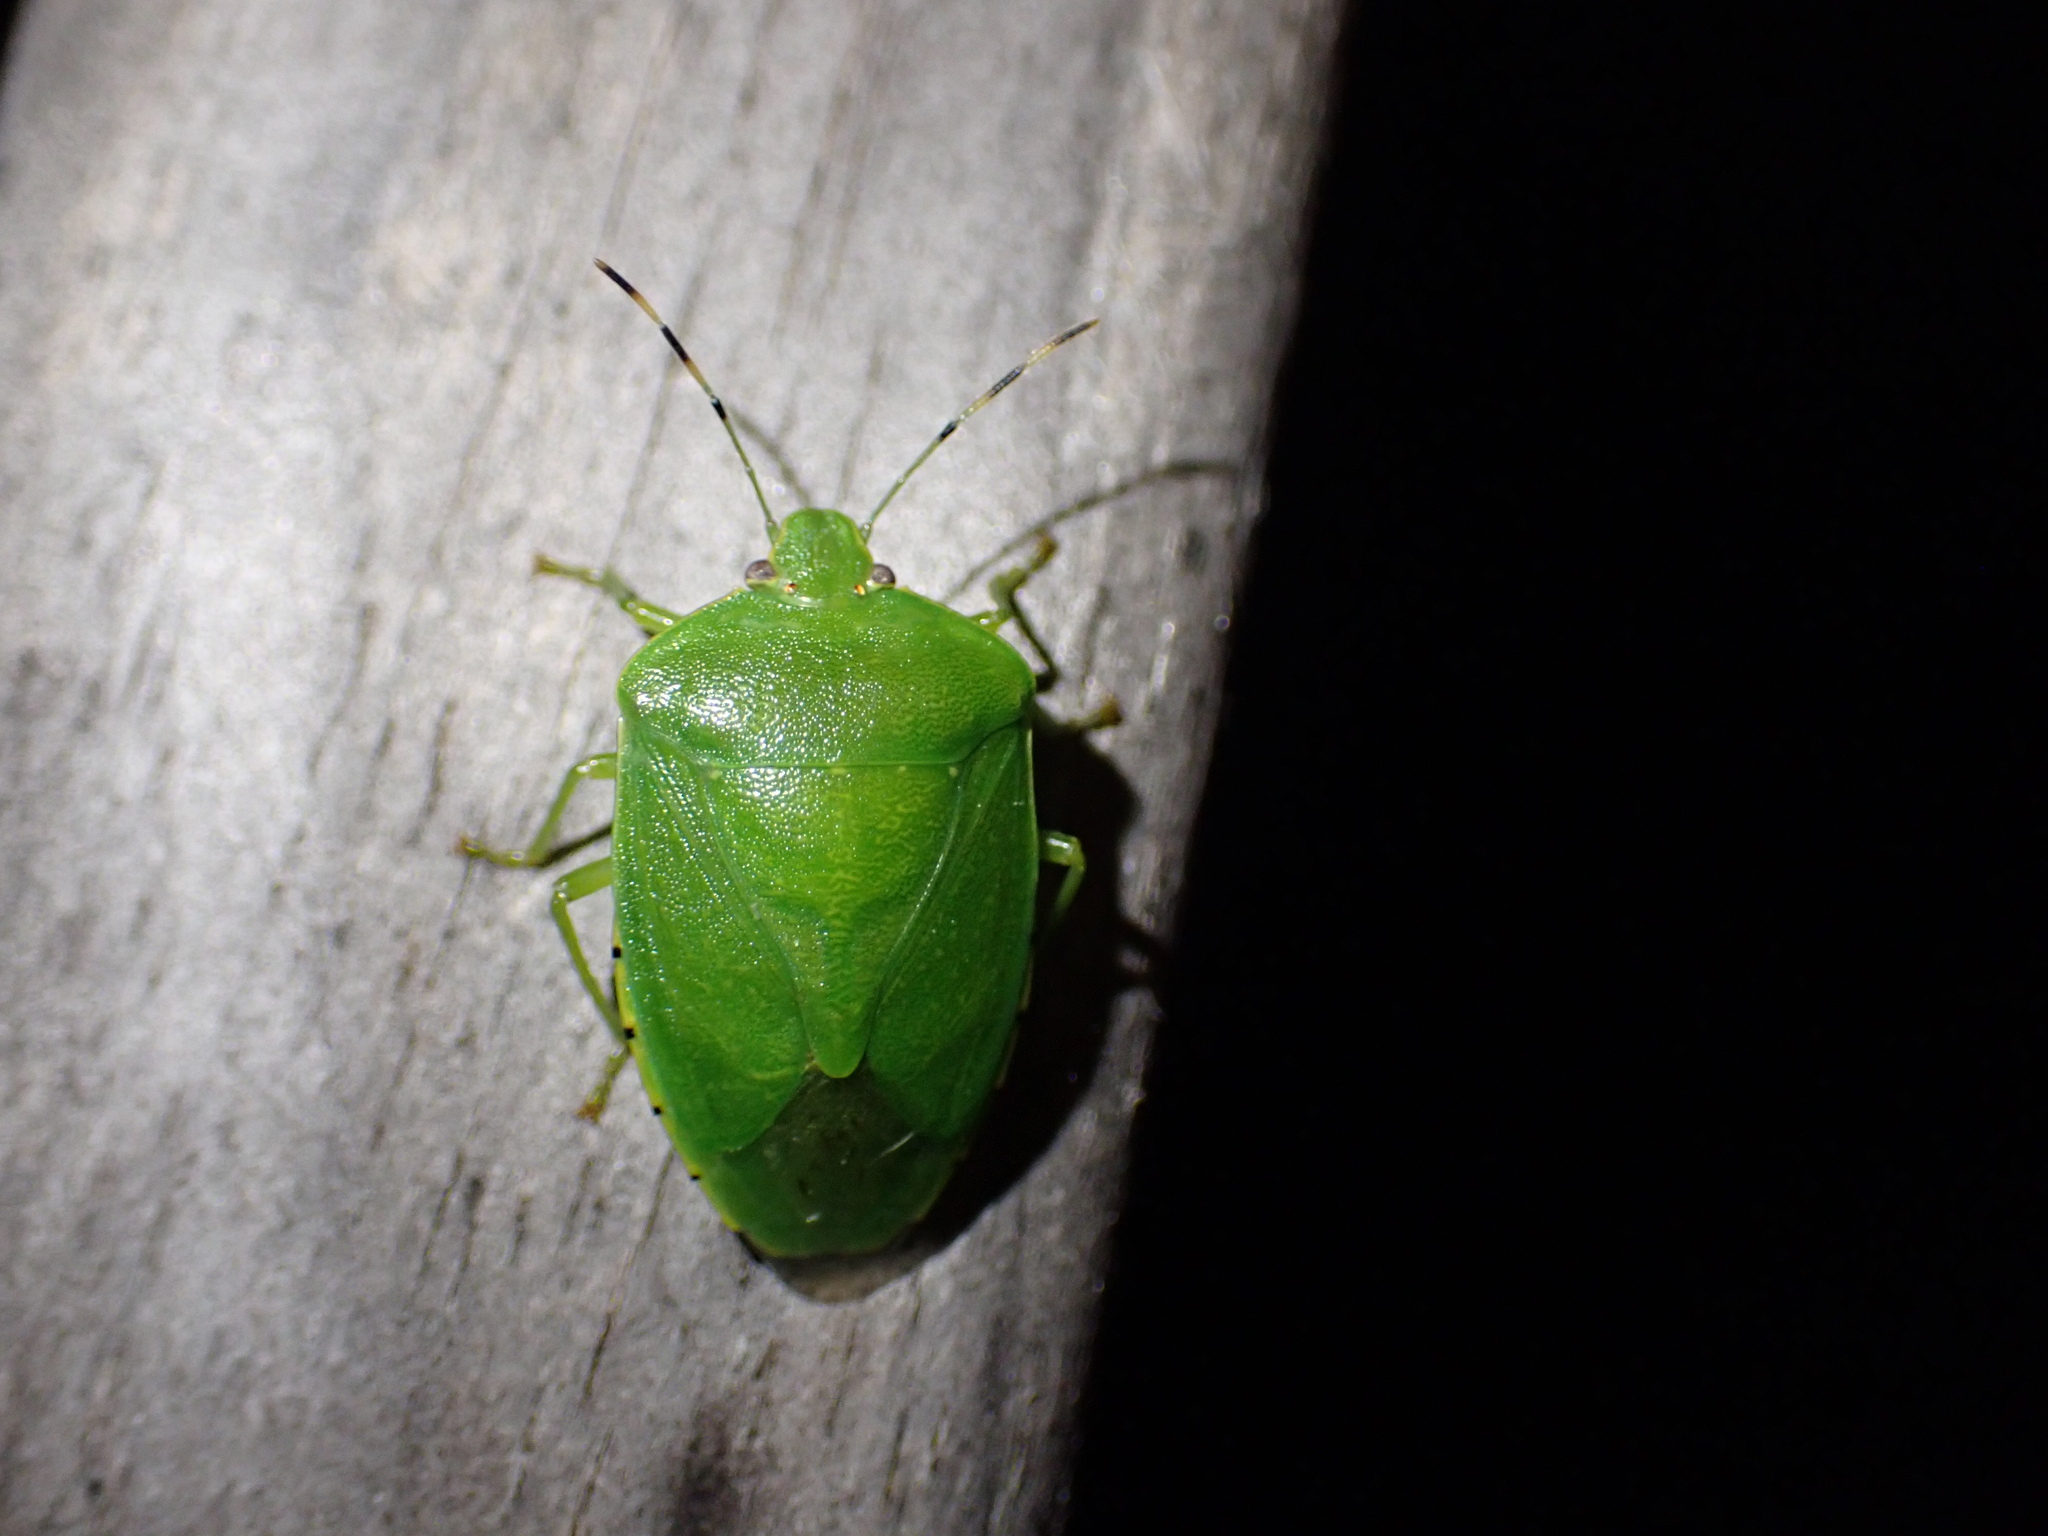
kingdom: Animalia
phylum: Arthropoda
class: Insecta
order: Hemiptera
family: Pentatomidae
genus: Chinavia
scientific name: Chinavia hilaris
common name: Green stink bug
